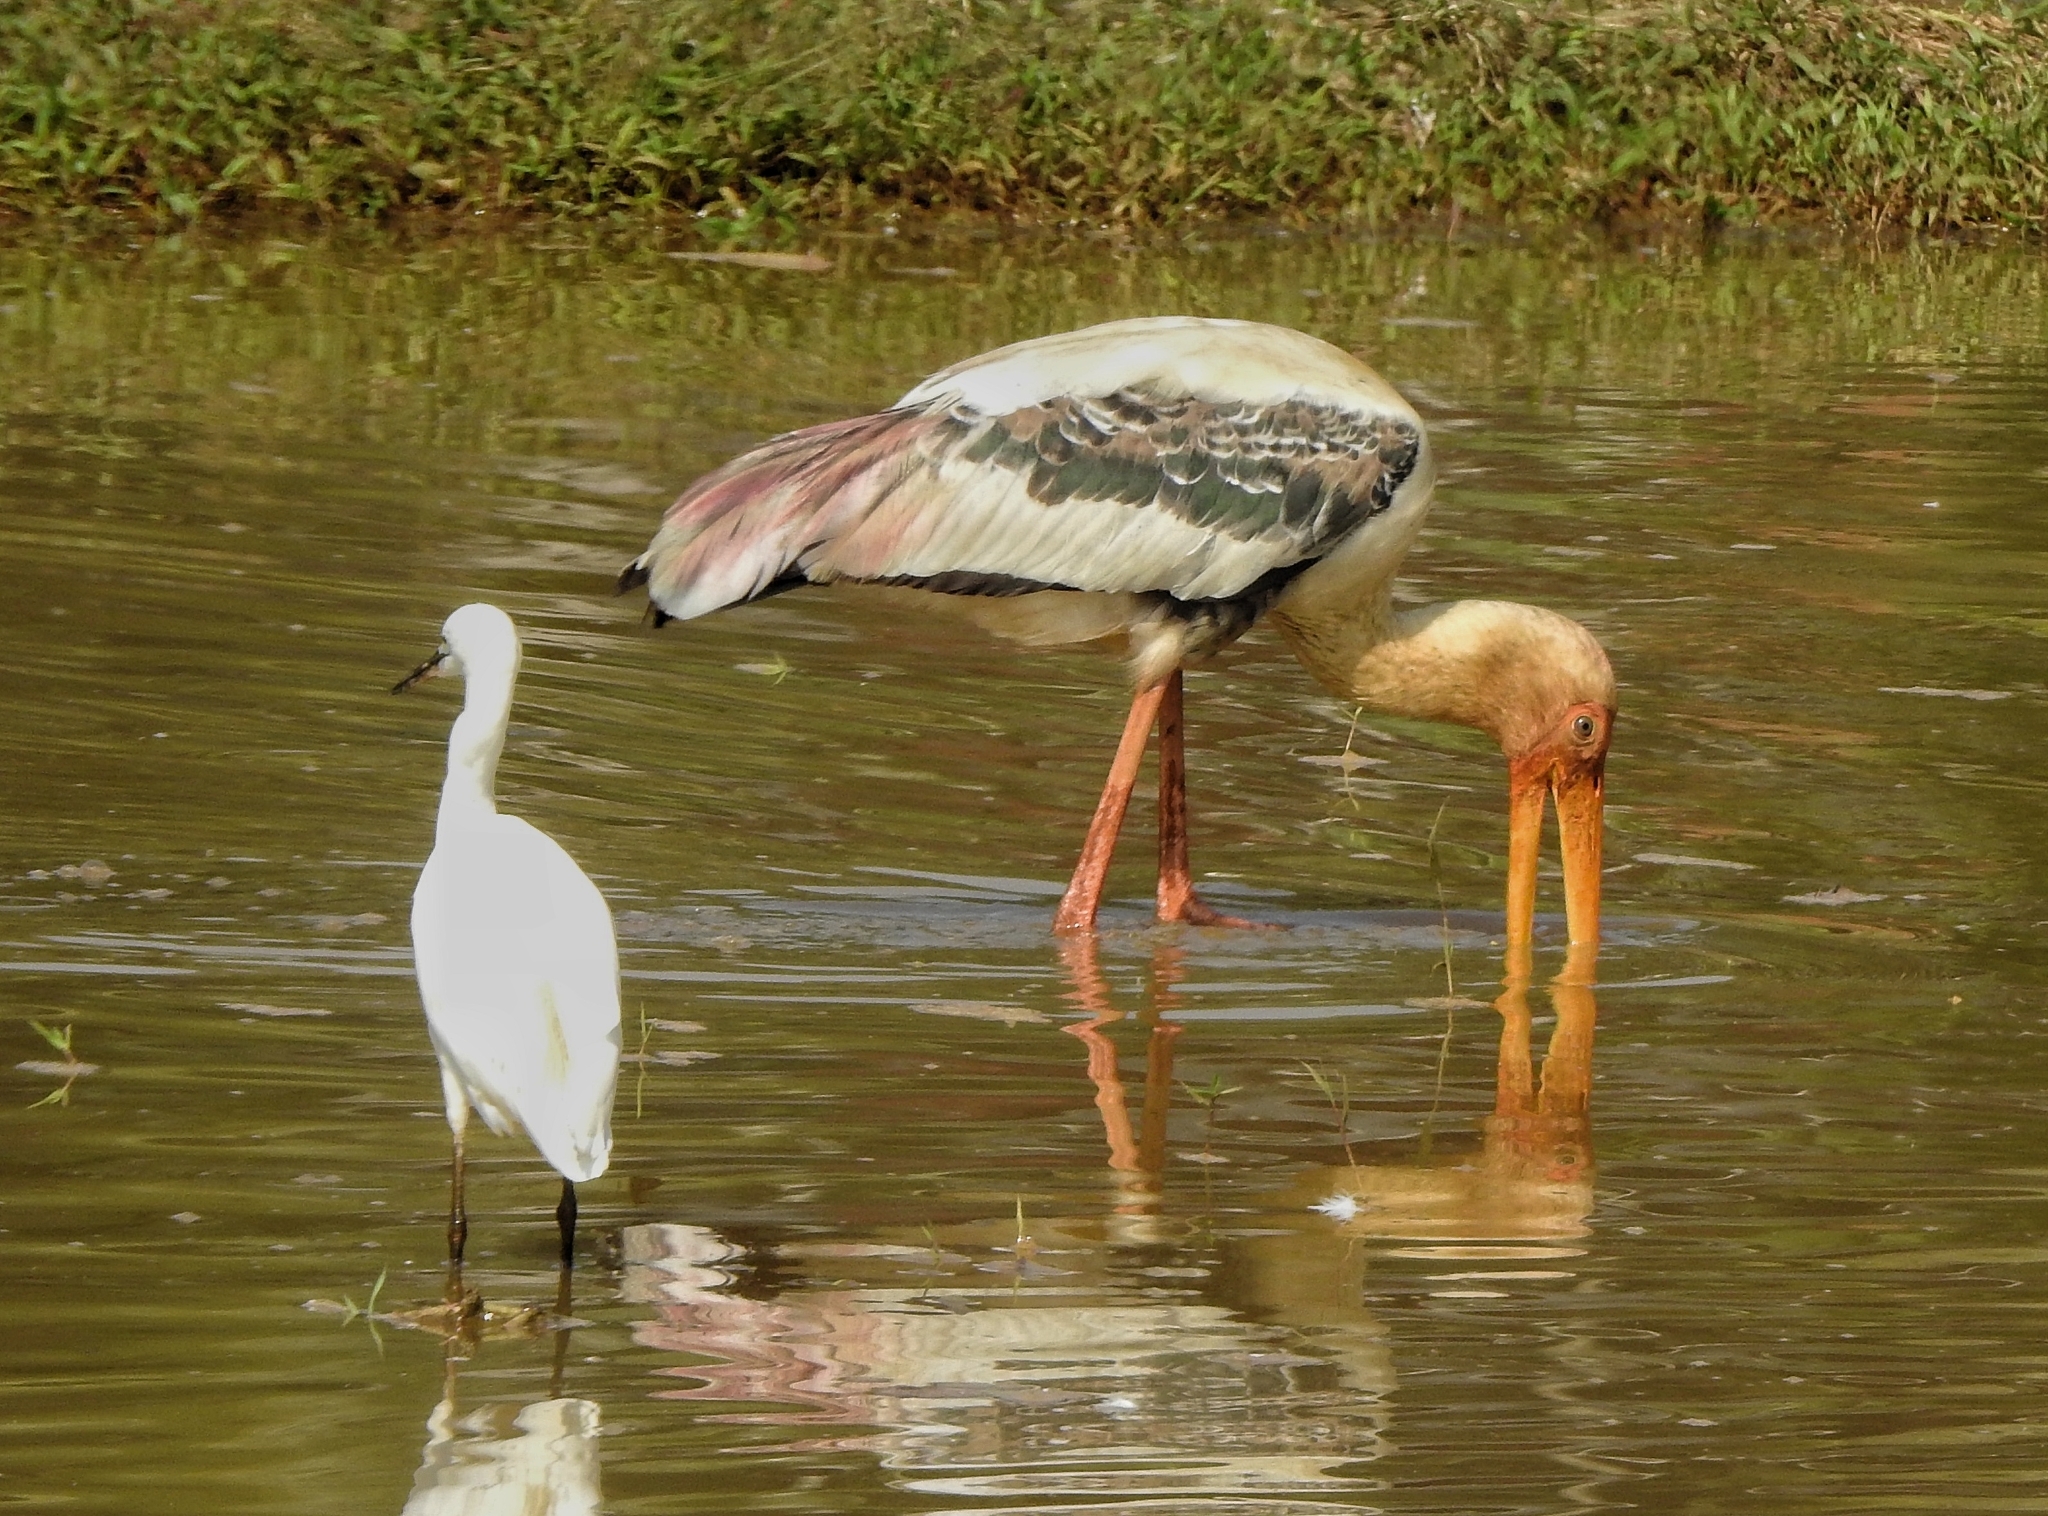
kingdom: Animalia
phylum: Chordata
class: Aves
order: Ciconiiformes
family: Ciconiidae
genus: Mycteria
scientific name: Mycteria leucocephala
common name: Painted stork
